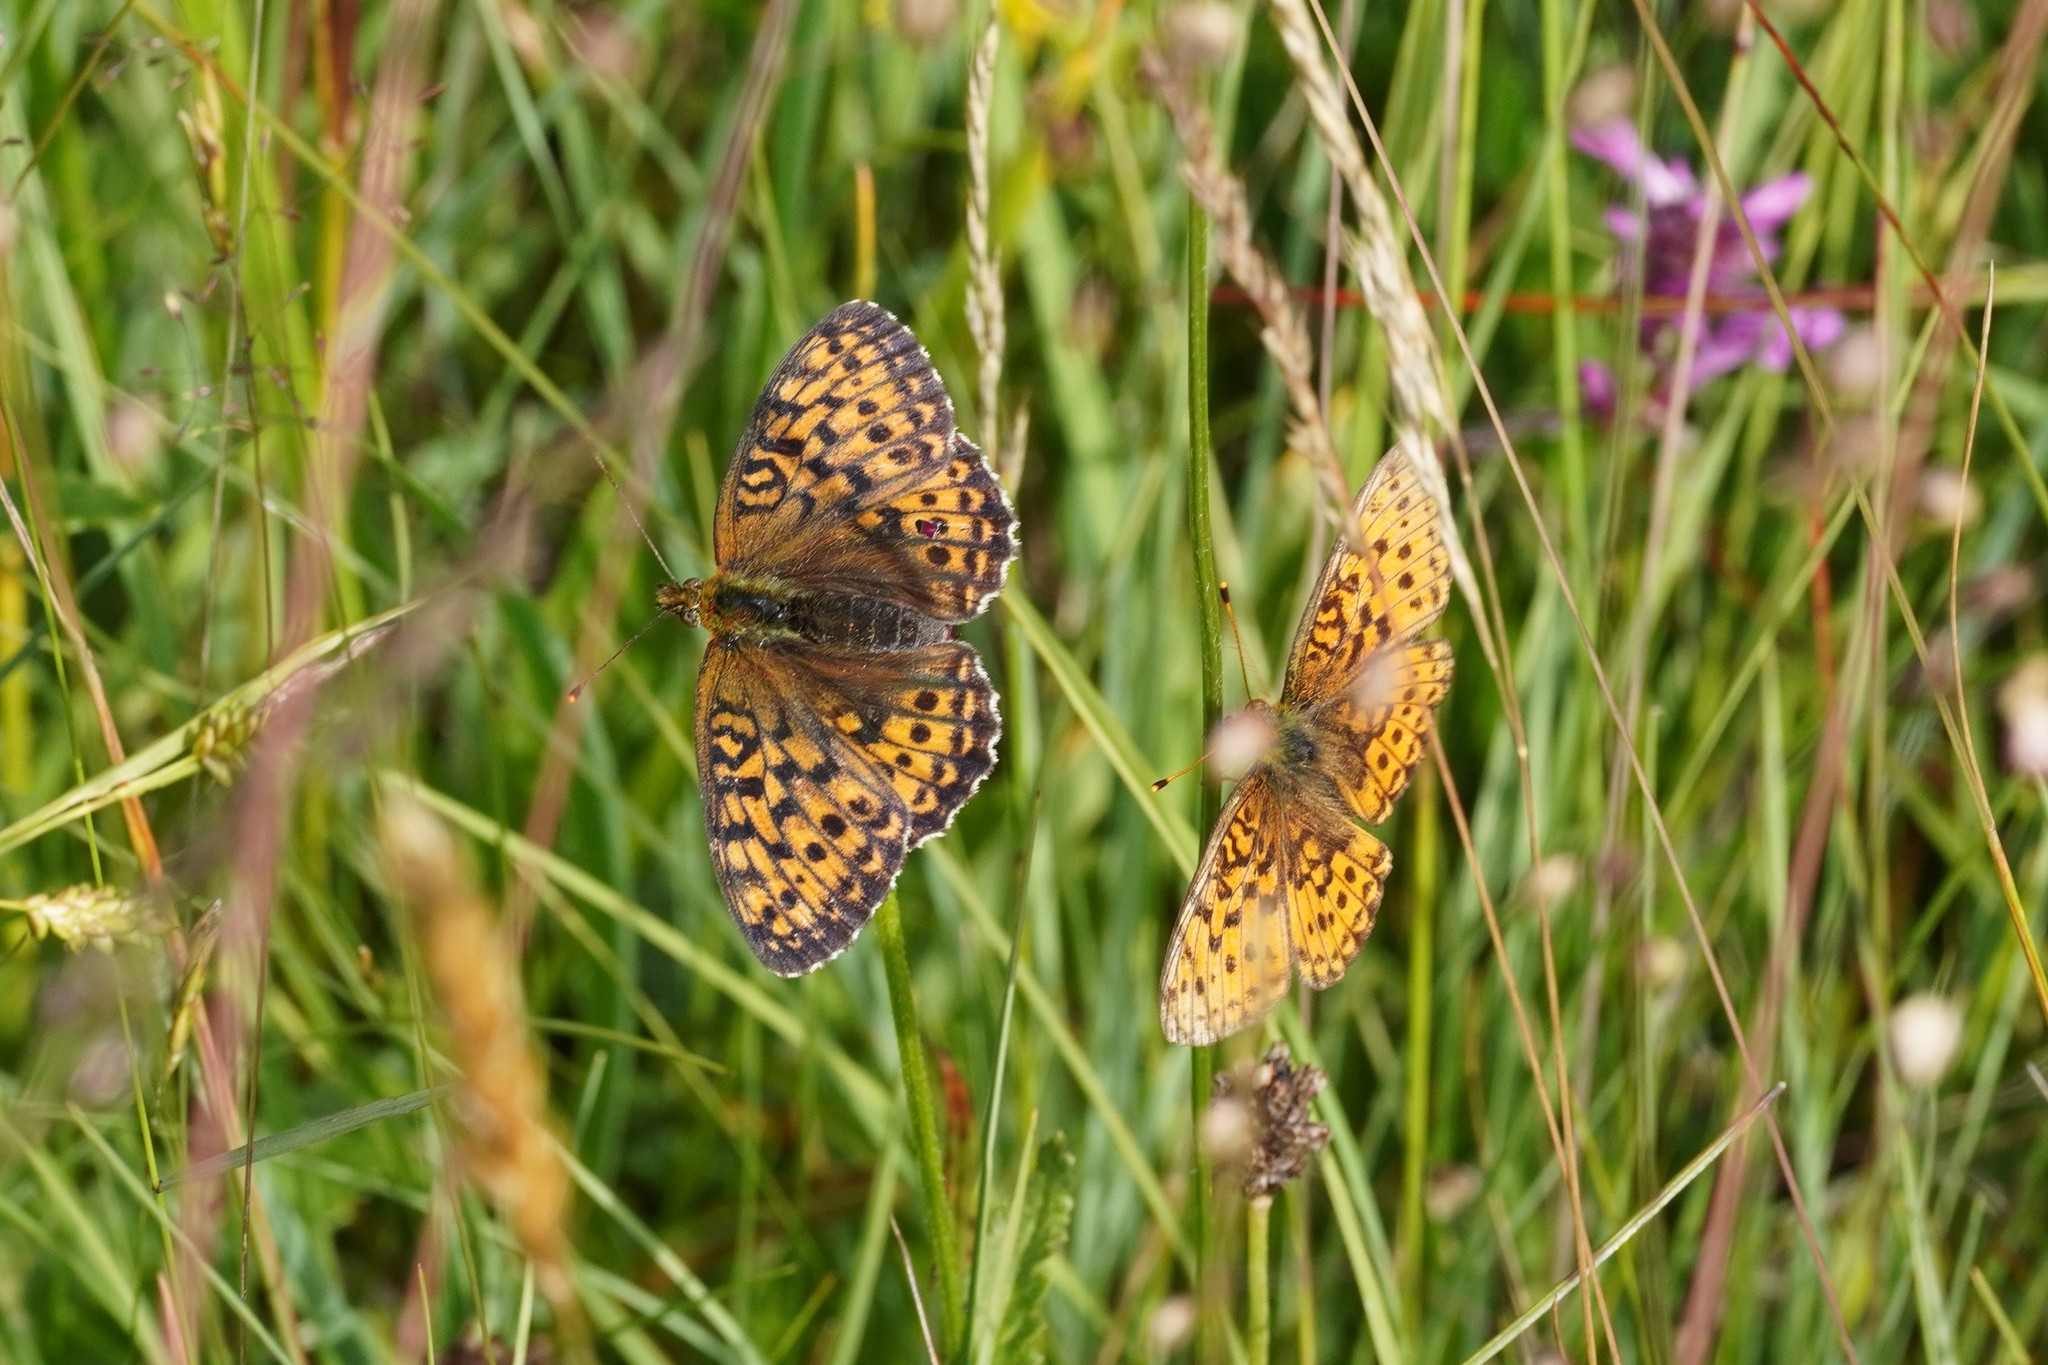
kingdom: Animalia
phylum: Arthropoda
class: Insecta
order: Lepidoptera
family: Nymphalidae
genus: Brenthis
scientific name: Brenthis ino
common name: Lesser marbled fritillary
